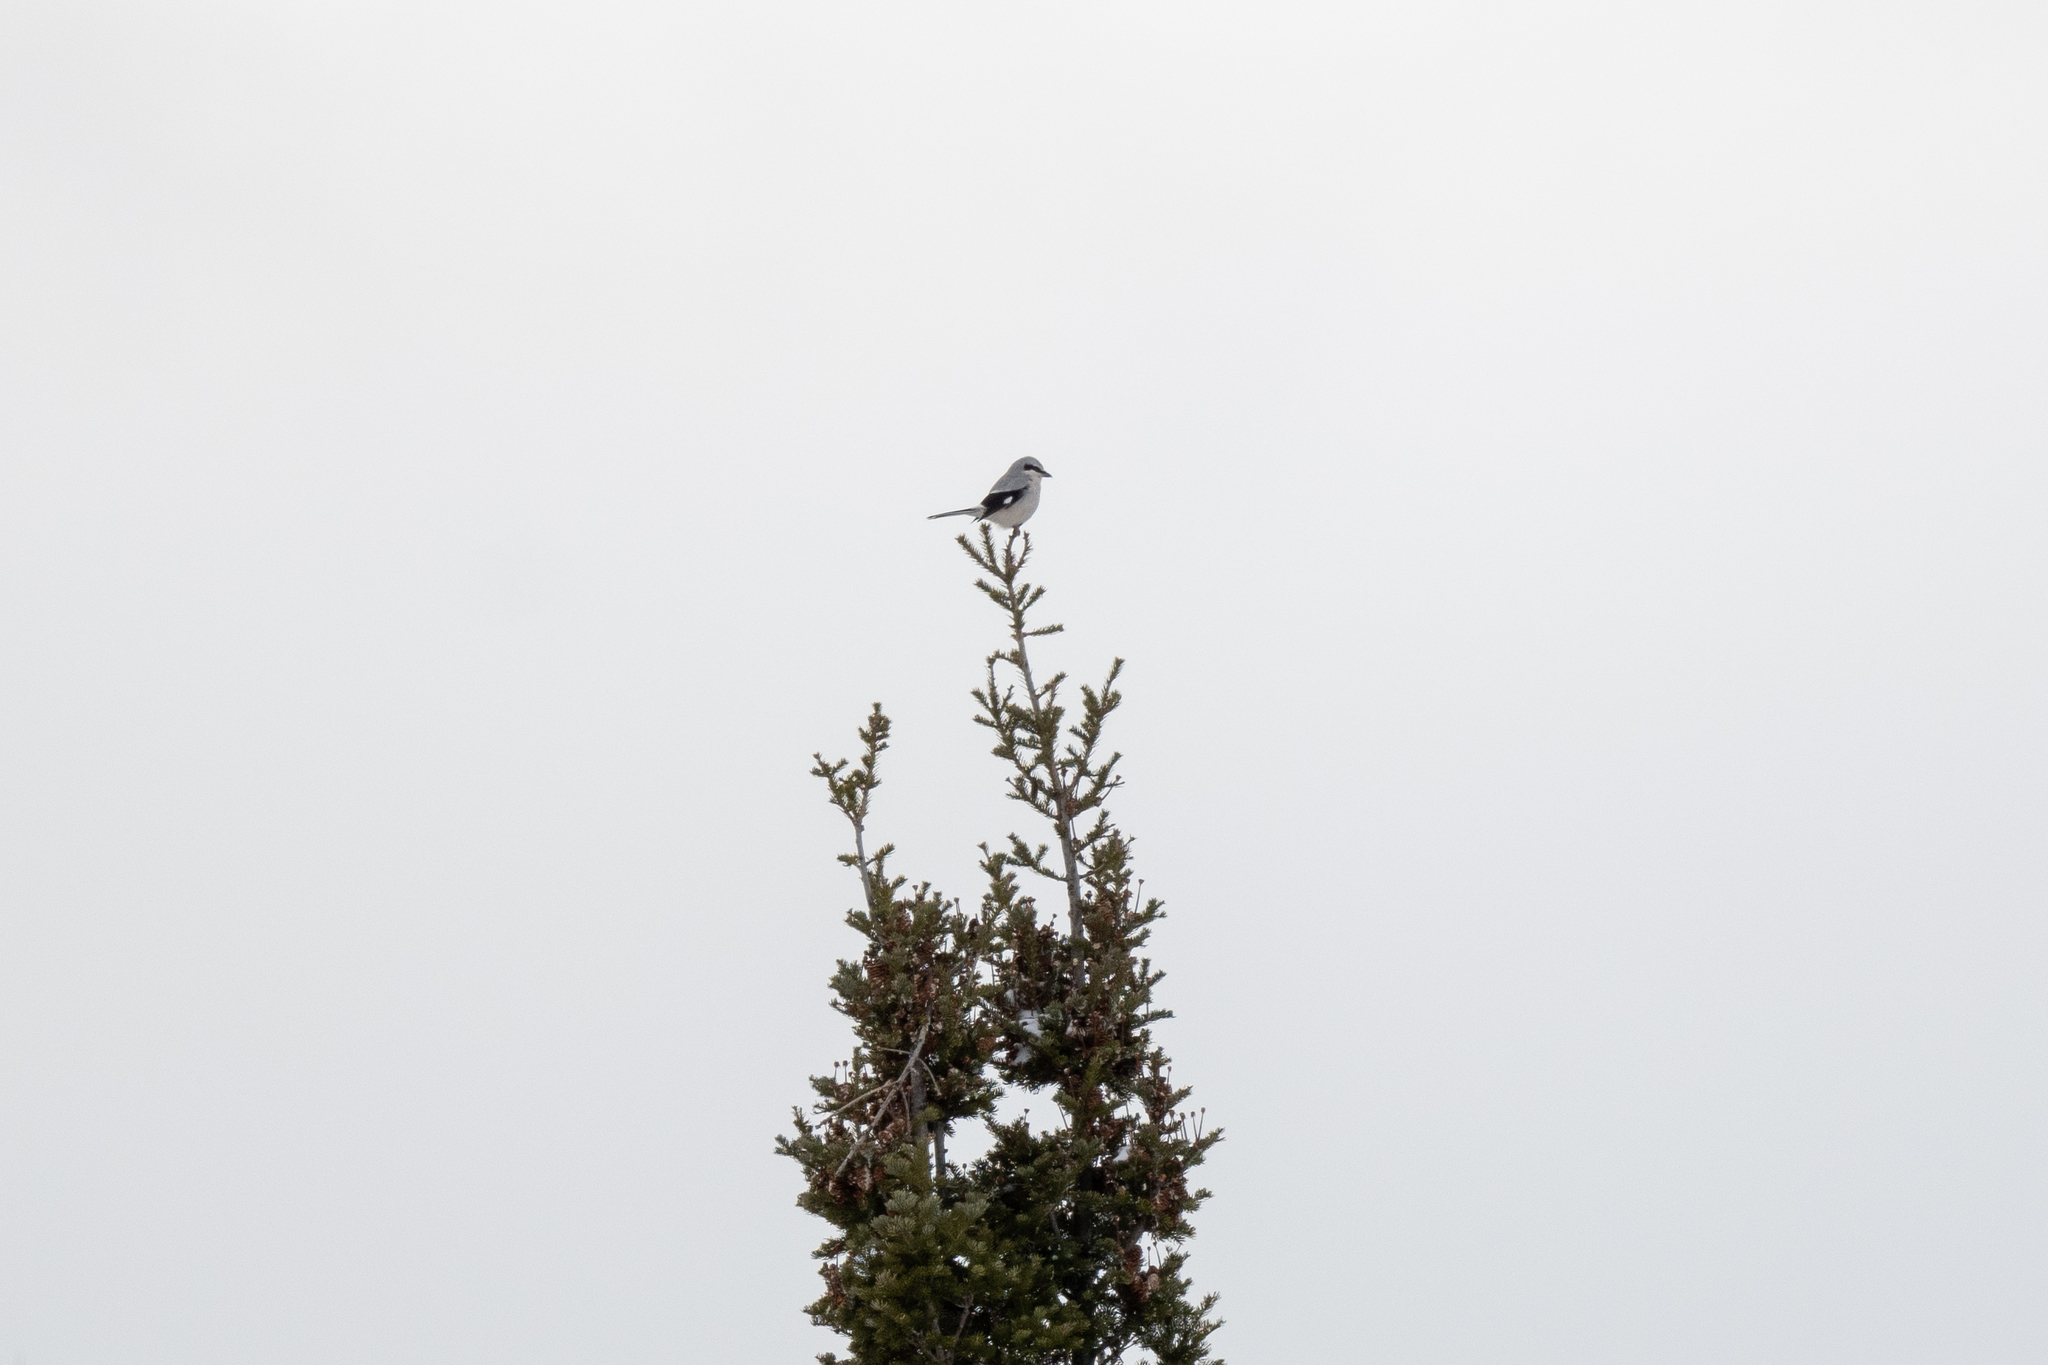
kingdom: Animalia
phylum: Chordata
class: Aves
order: Passeriformes
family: Laniidae
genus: Lanius
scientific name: Lanius borealis
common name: Northern shrike
